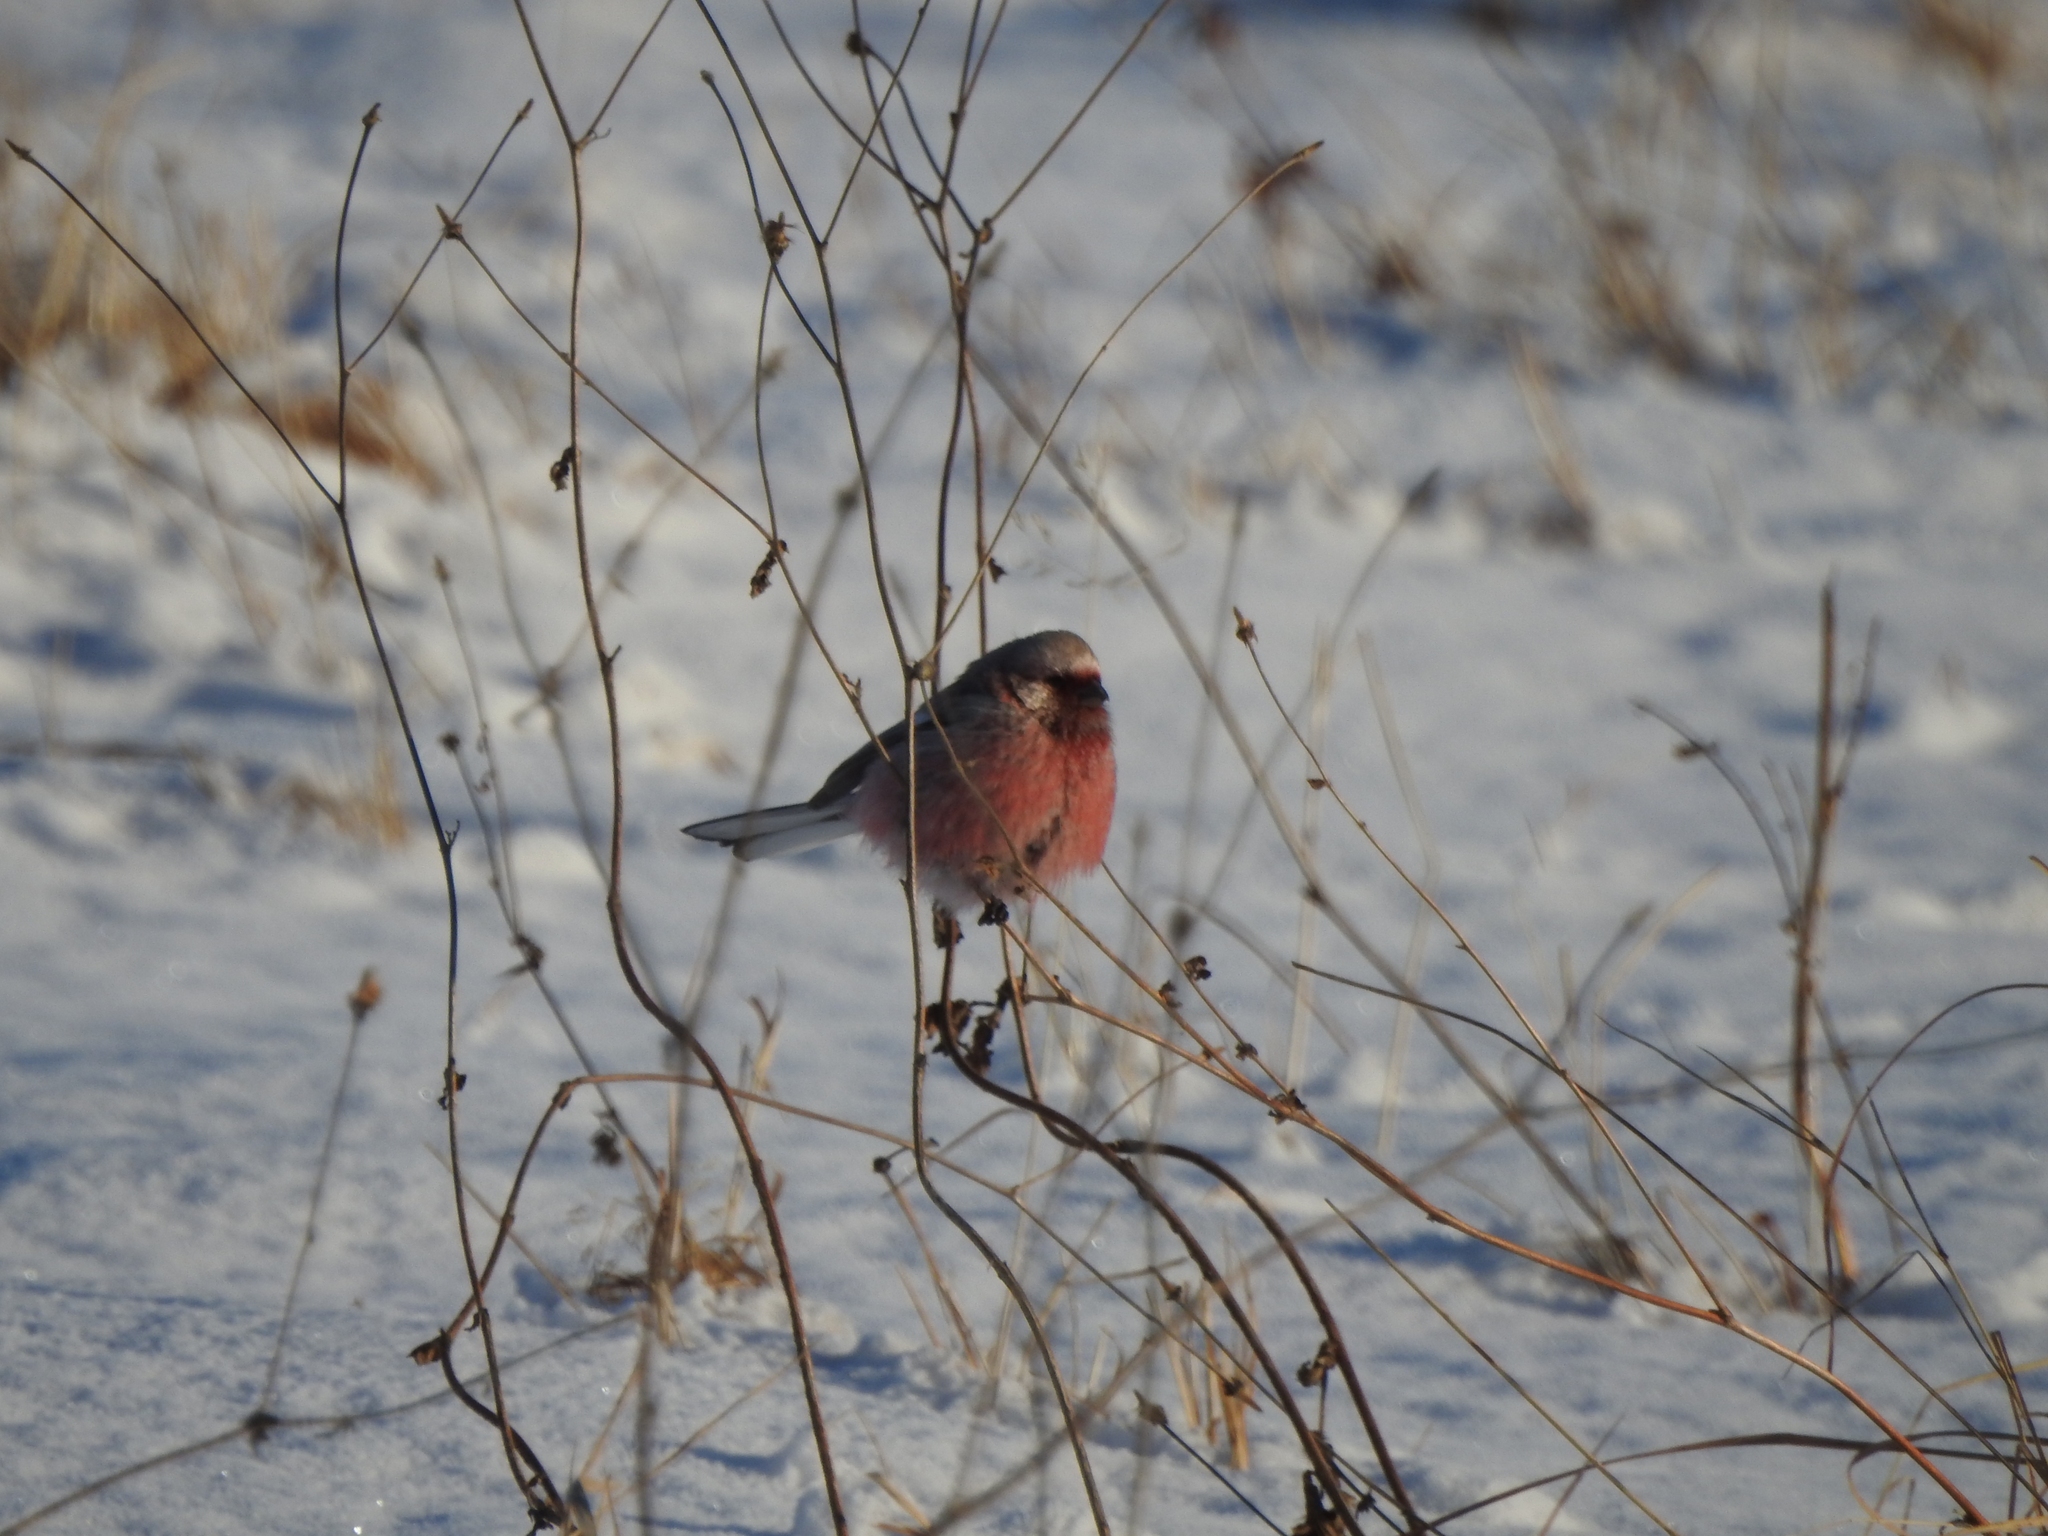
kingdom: Animalia
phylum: Chordata
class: Aves
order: Passeriformes
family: Fringillidae
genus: Carpodacus
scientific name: Carpodacus sibiricus
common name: Long-tailed rosefinch
